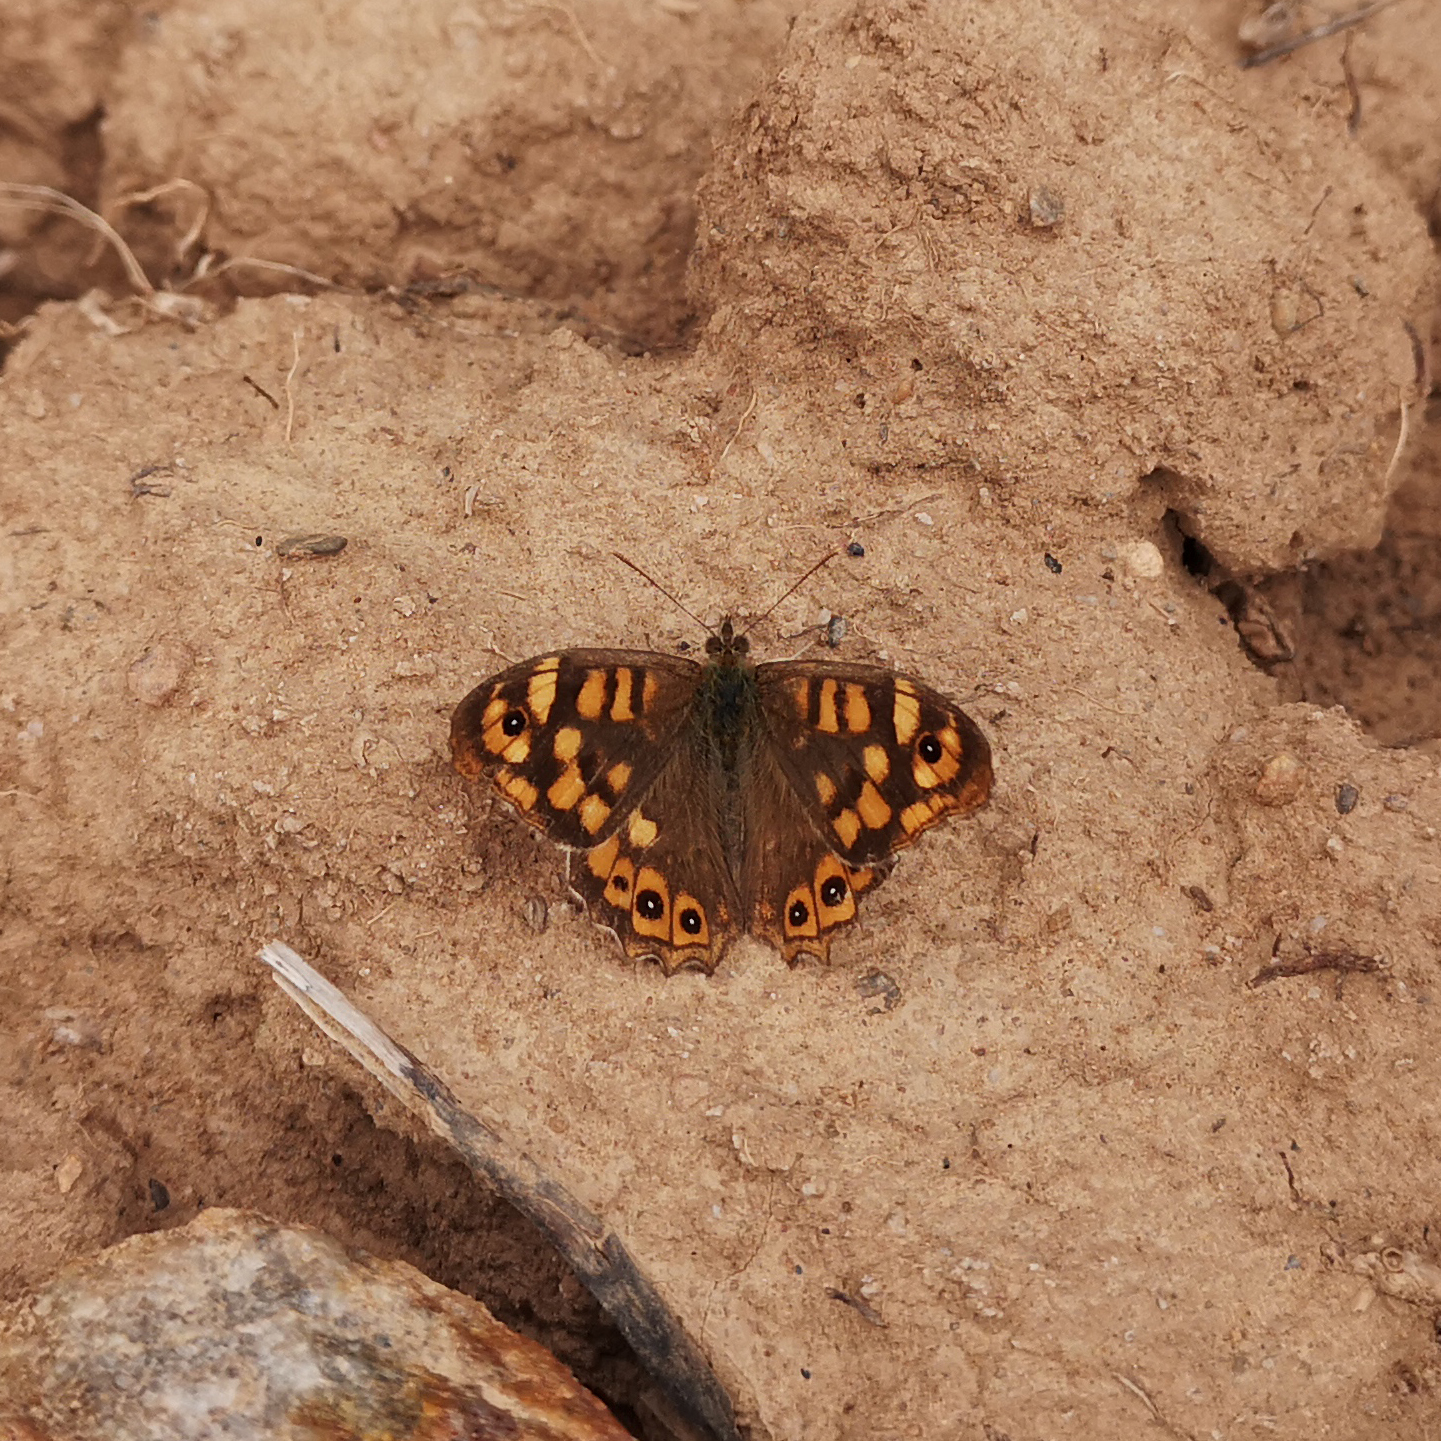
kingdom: Animalia
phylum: Arthropoda
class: Insecta
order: Lepidoptera
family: Nymphalidae
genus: Pararge
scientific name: Pararge aegeria
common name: Speckled wood
